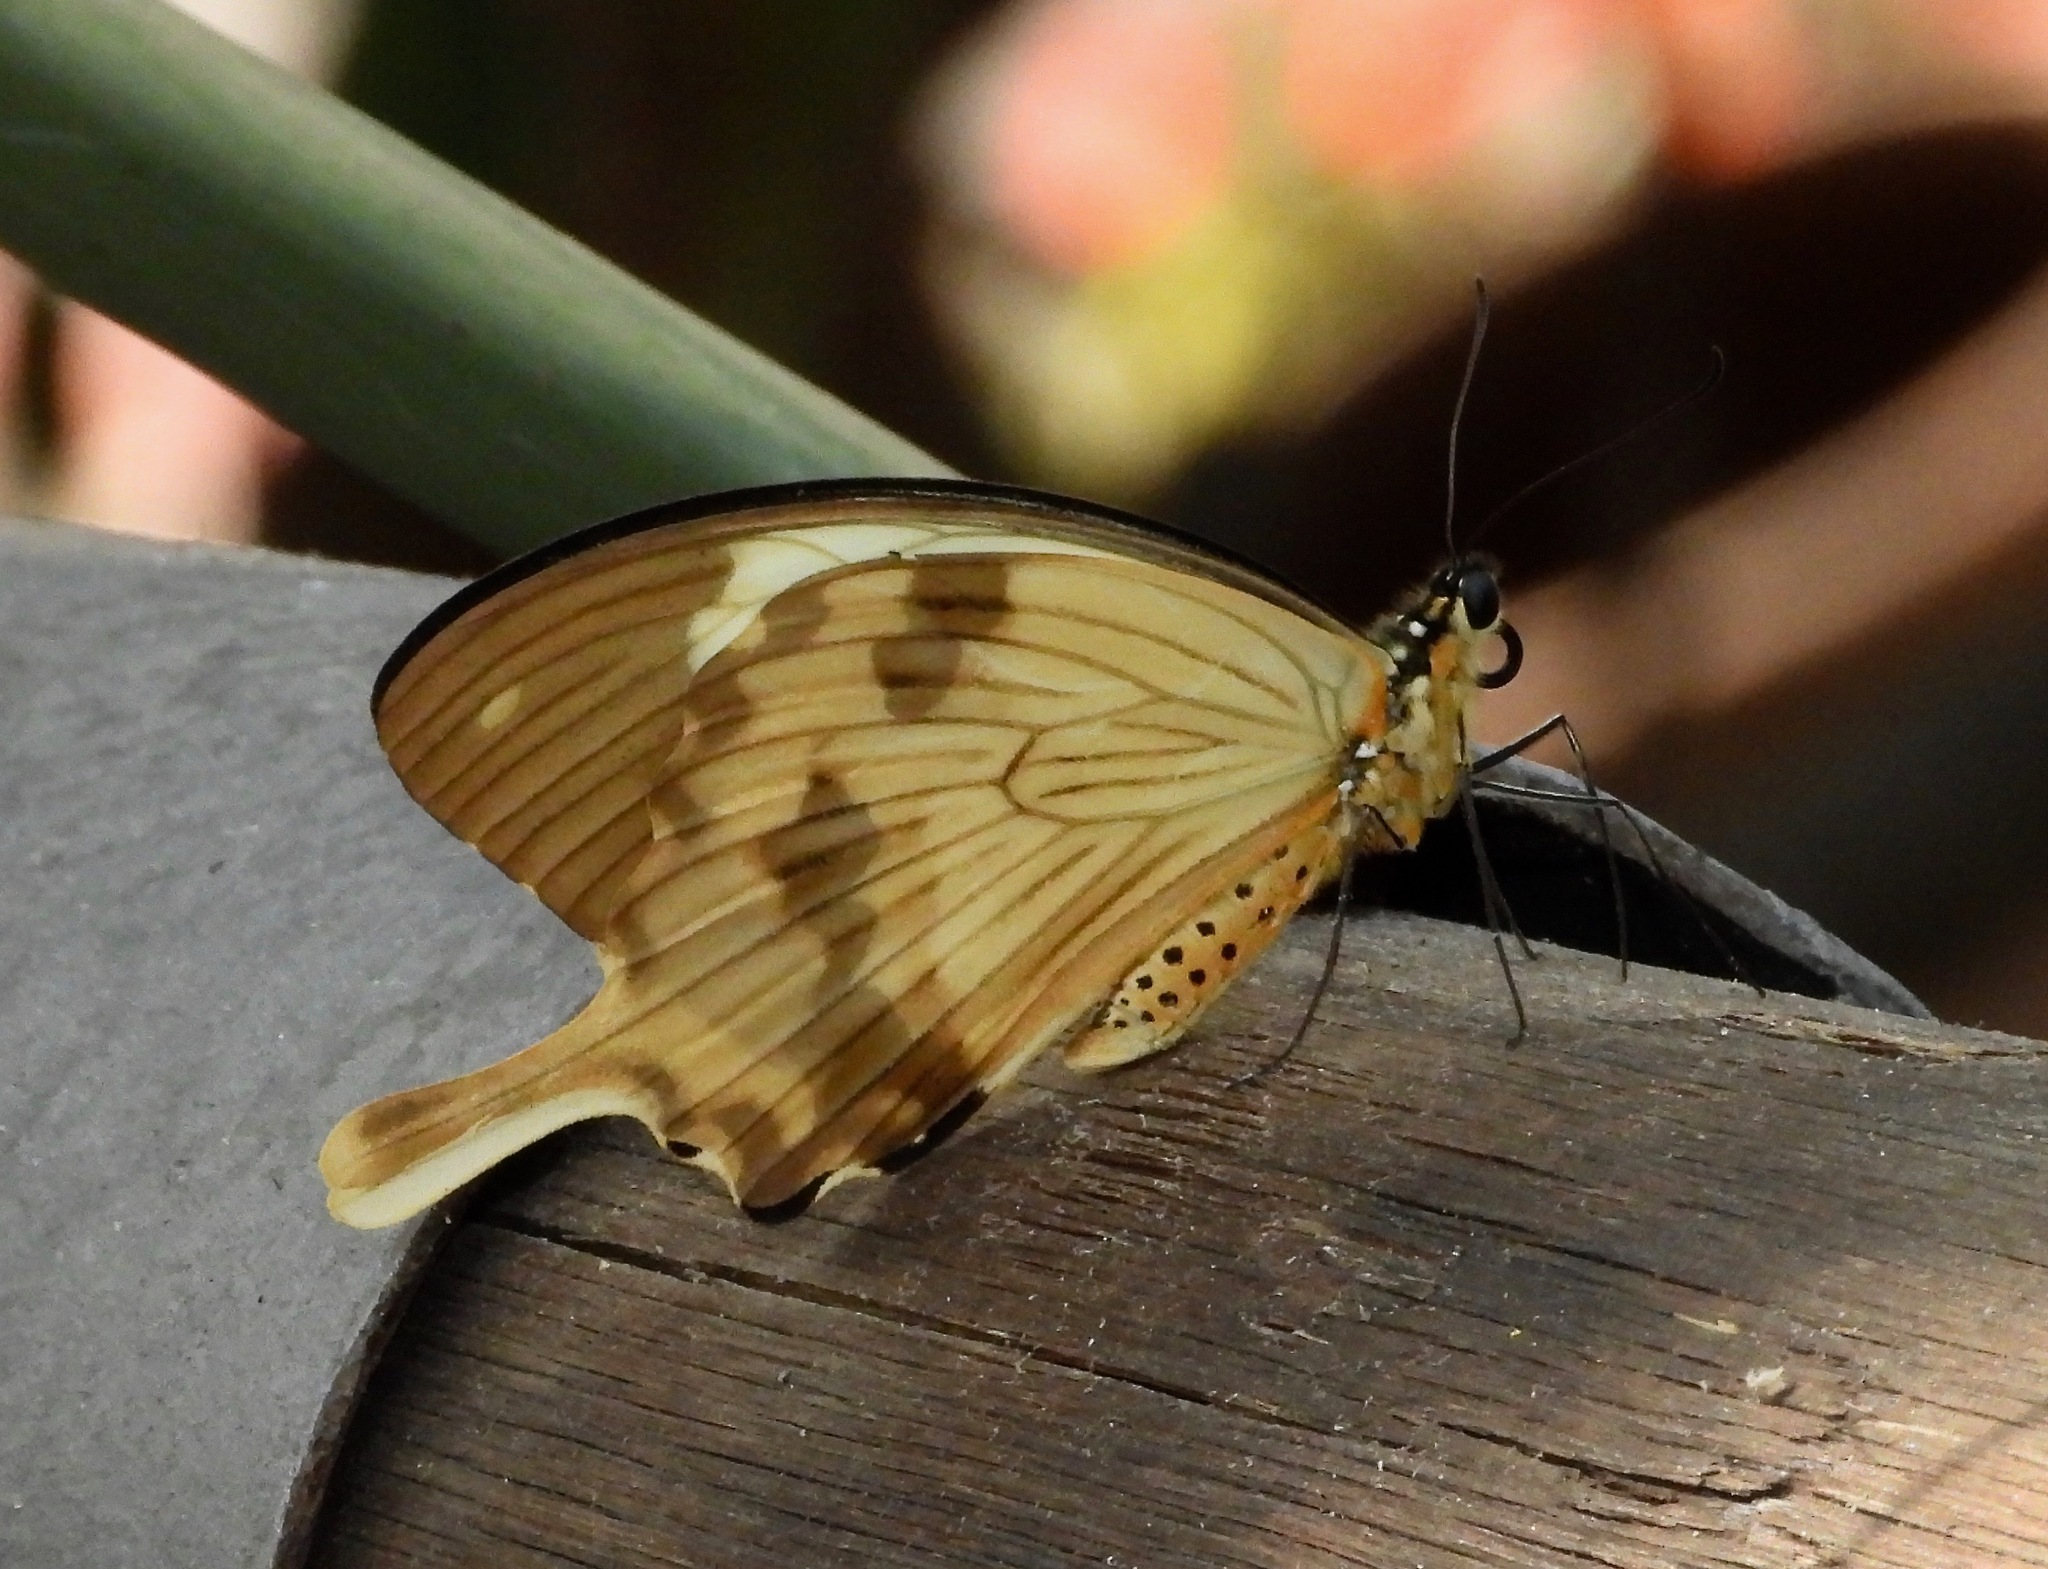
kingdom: Animalia
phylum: Arthropoda
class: Insecta
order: Lepidoptera
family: Papilionidae
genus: Papilio
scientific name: Papilio dardanus
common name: Flying handkerchief
